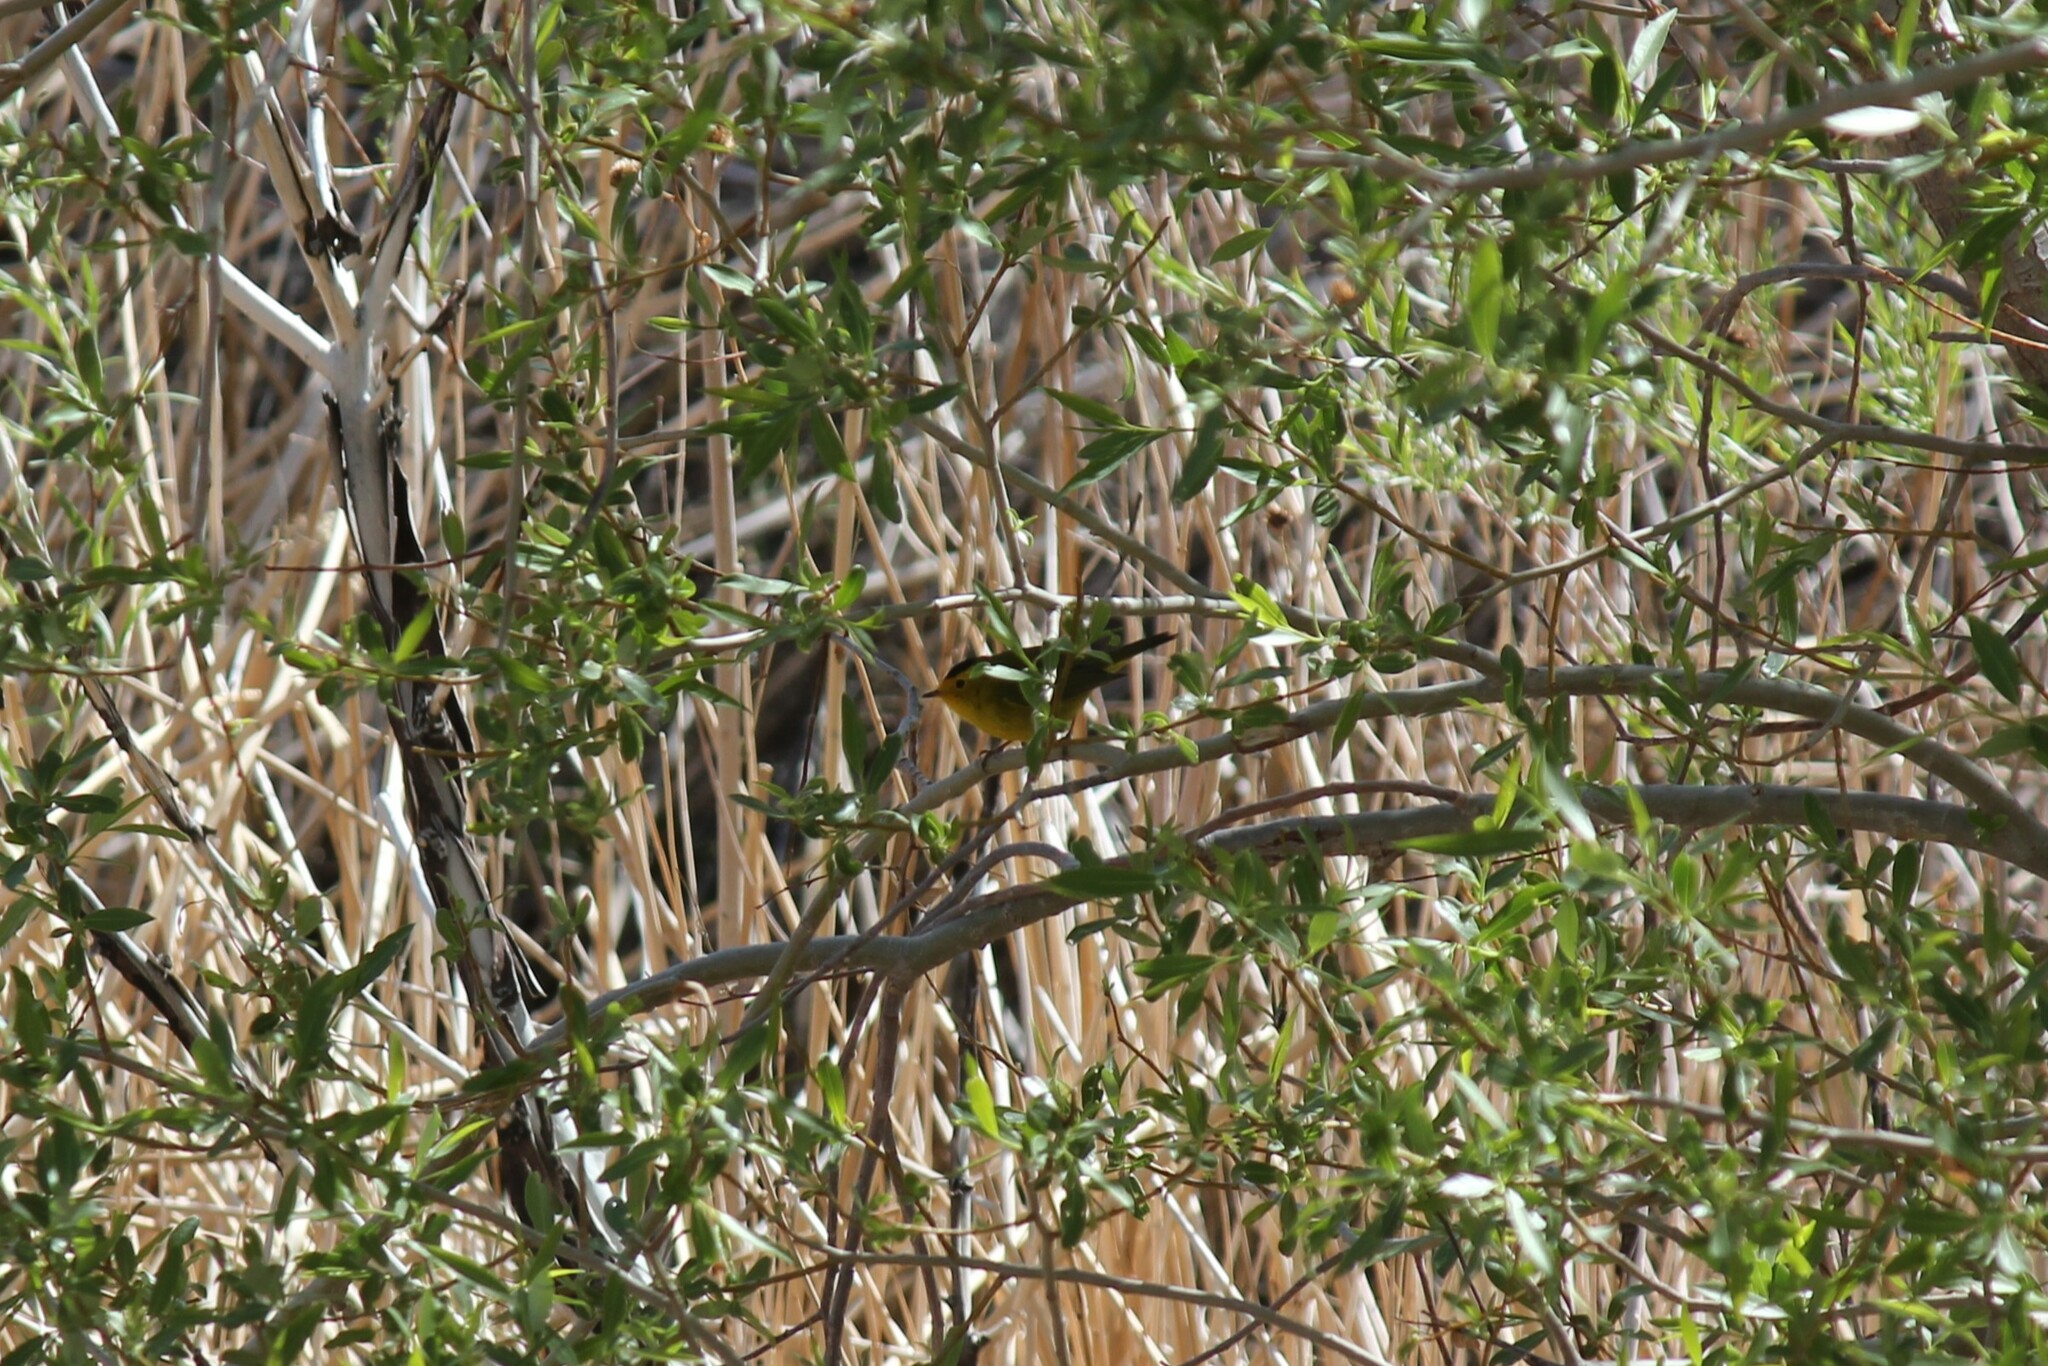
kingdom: Animalia
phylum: Chordata
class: Aves
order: Passeriformes
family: Parulidae
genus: Cardellina
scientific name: Cardellina pusilla
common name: Wilson's warbler
